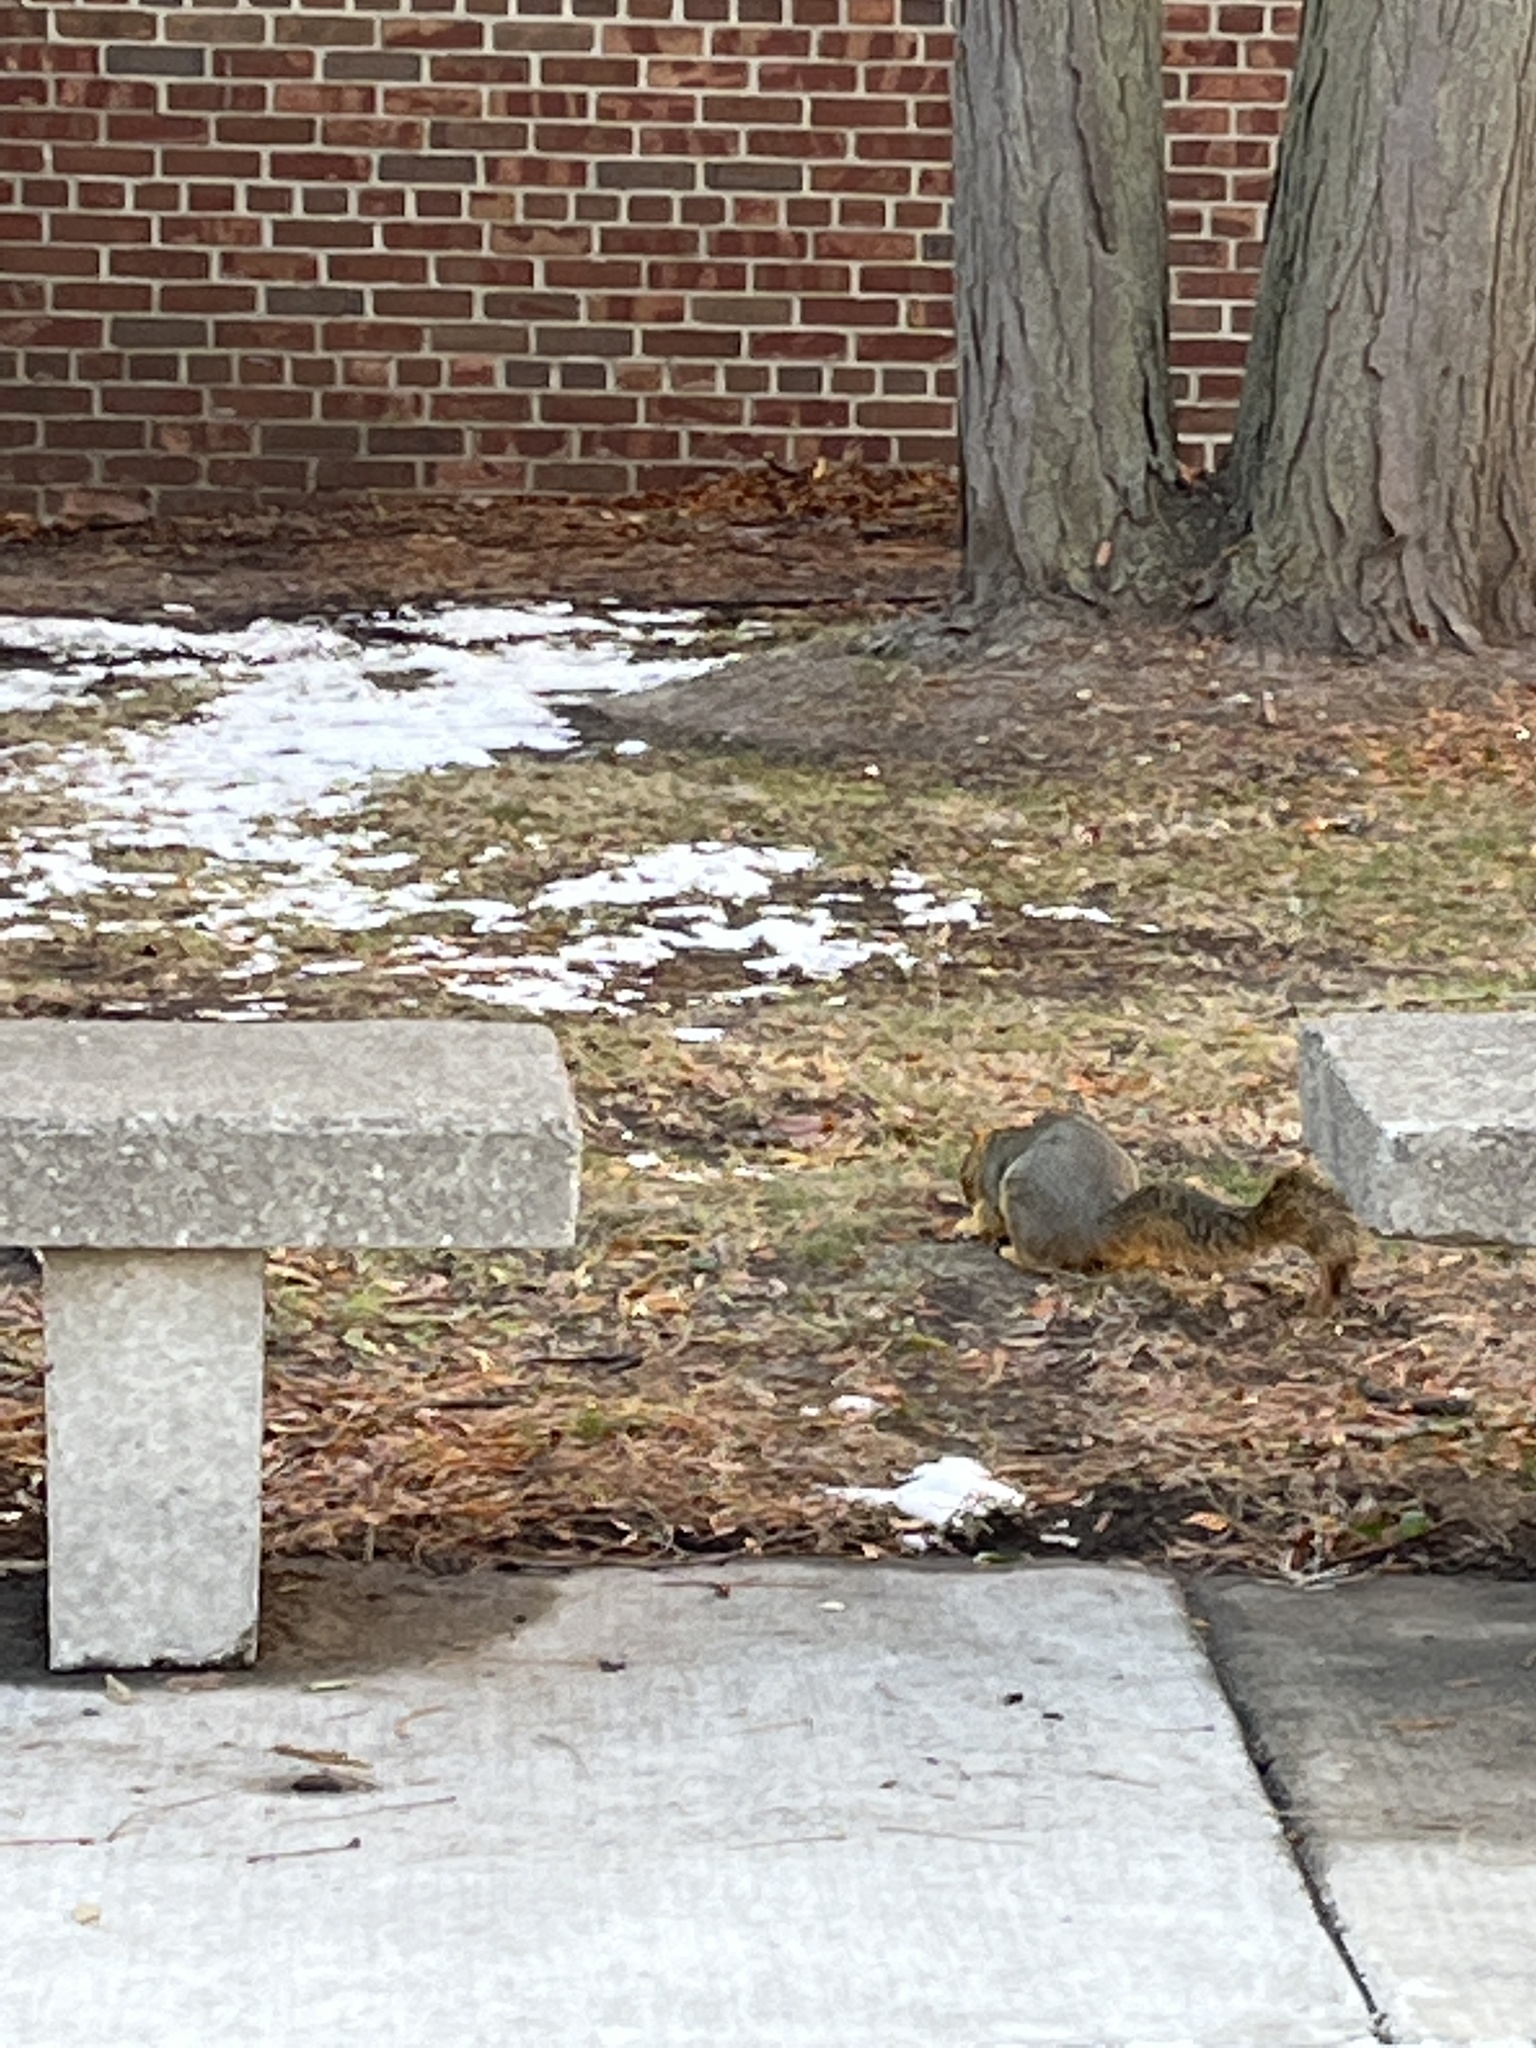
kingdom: Animalia
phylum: Chordata
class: Mammalia
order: Rodentia
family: Sciuridae
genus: Sciurus
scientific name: Sciurus niger
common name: Fox squirrel
